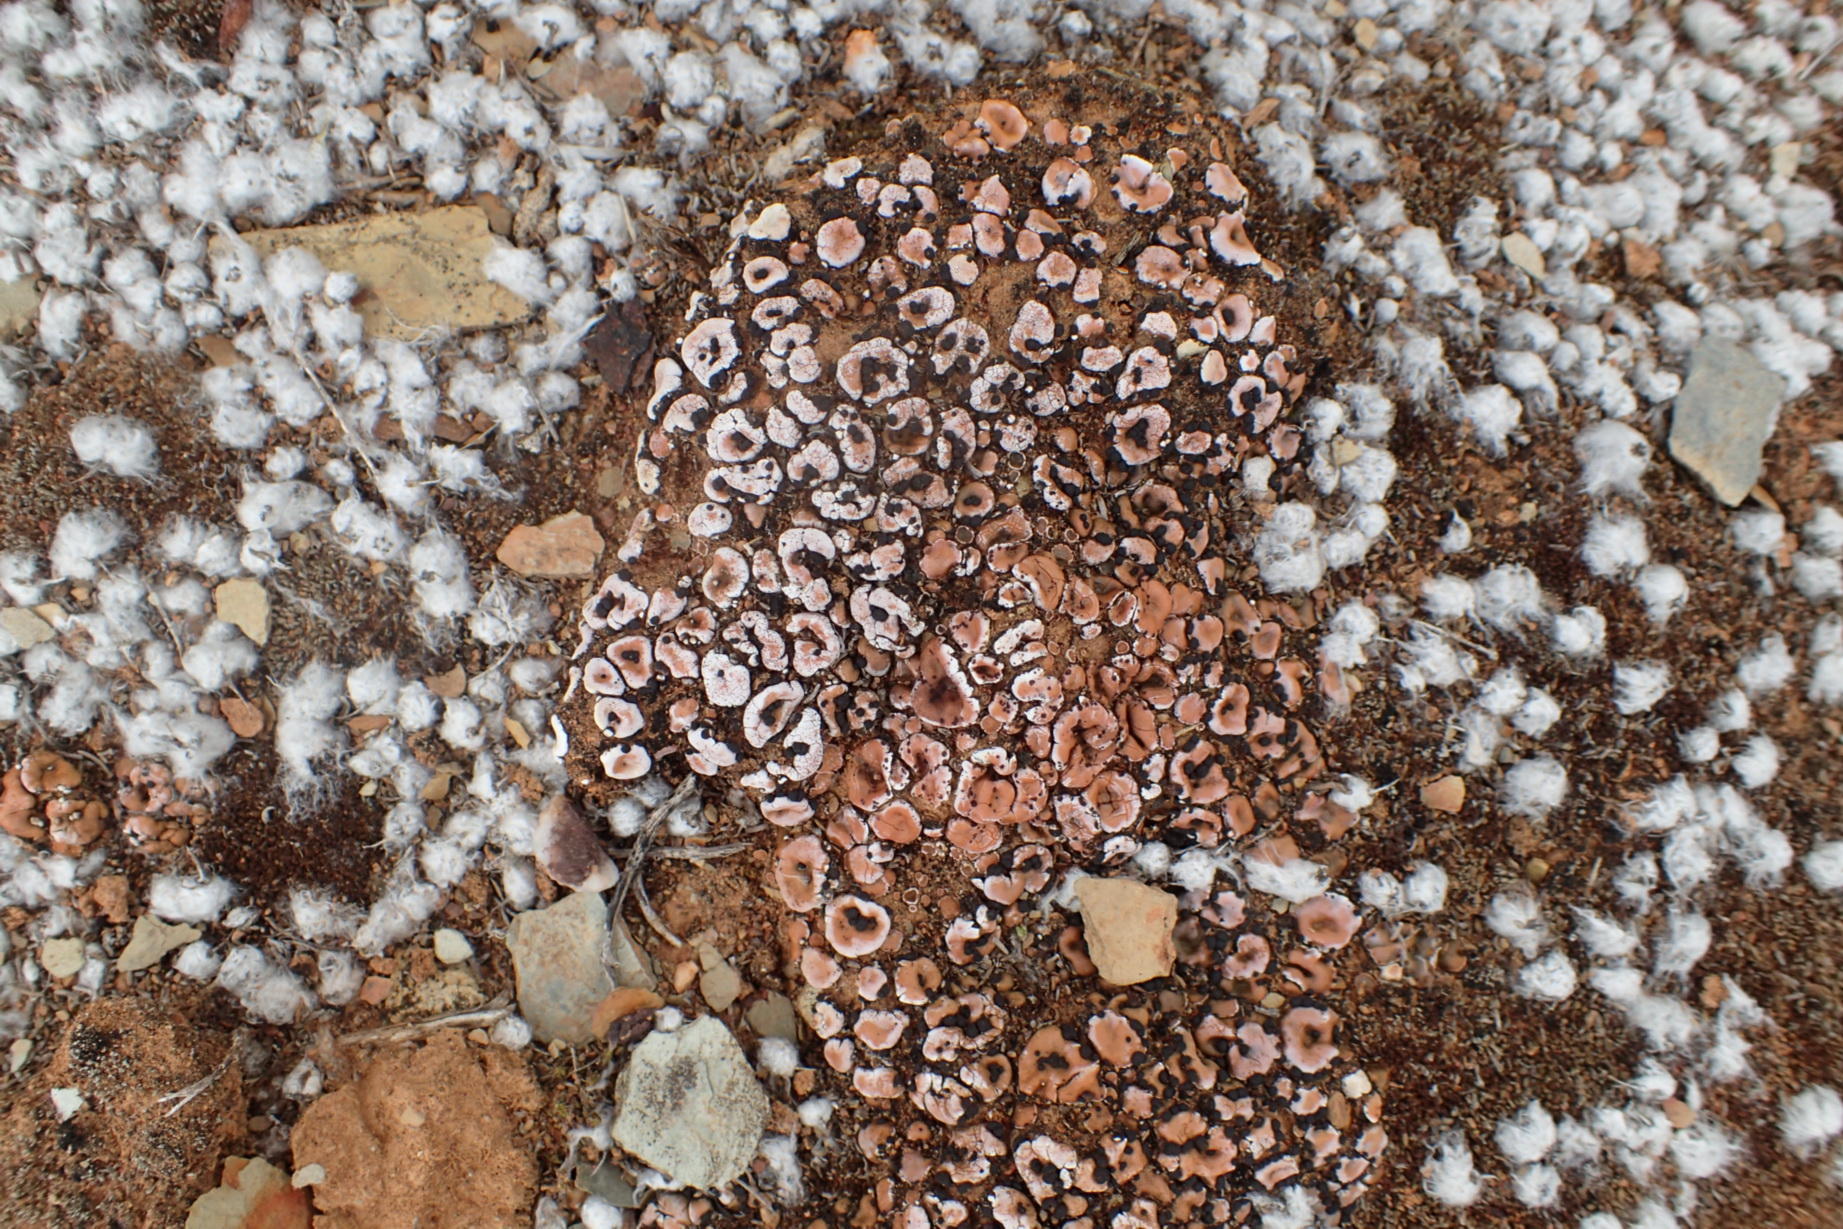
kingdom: Fungi
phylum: Ascomycota
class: Lecanoromycetes
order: Lecanorales
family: Psoraceae
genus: Psora
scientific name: Psora crenata
